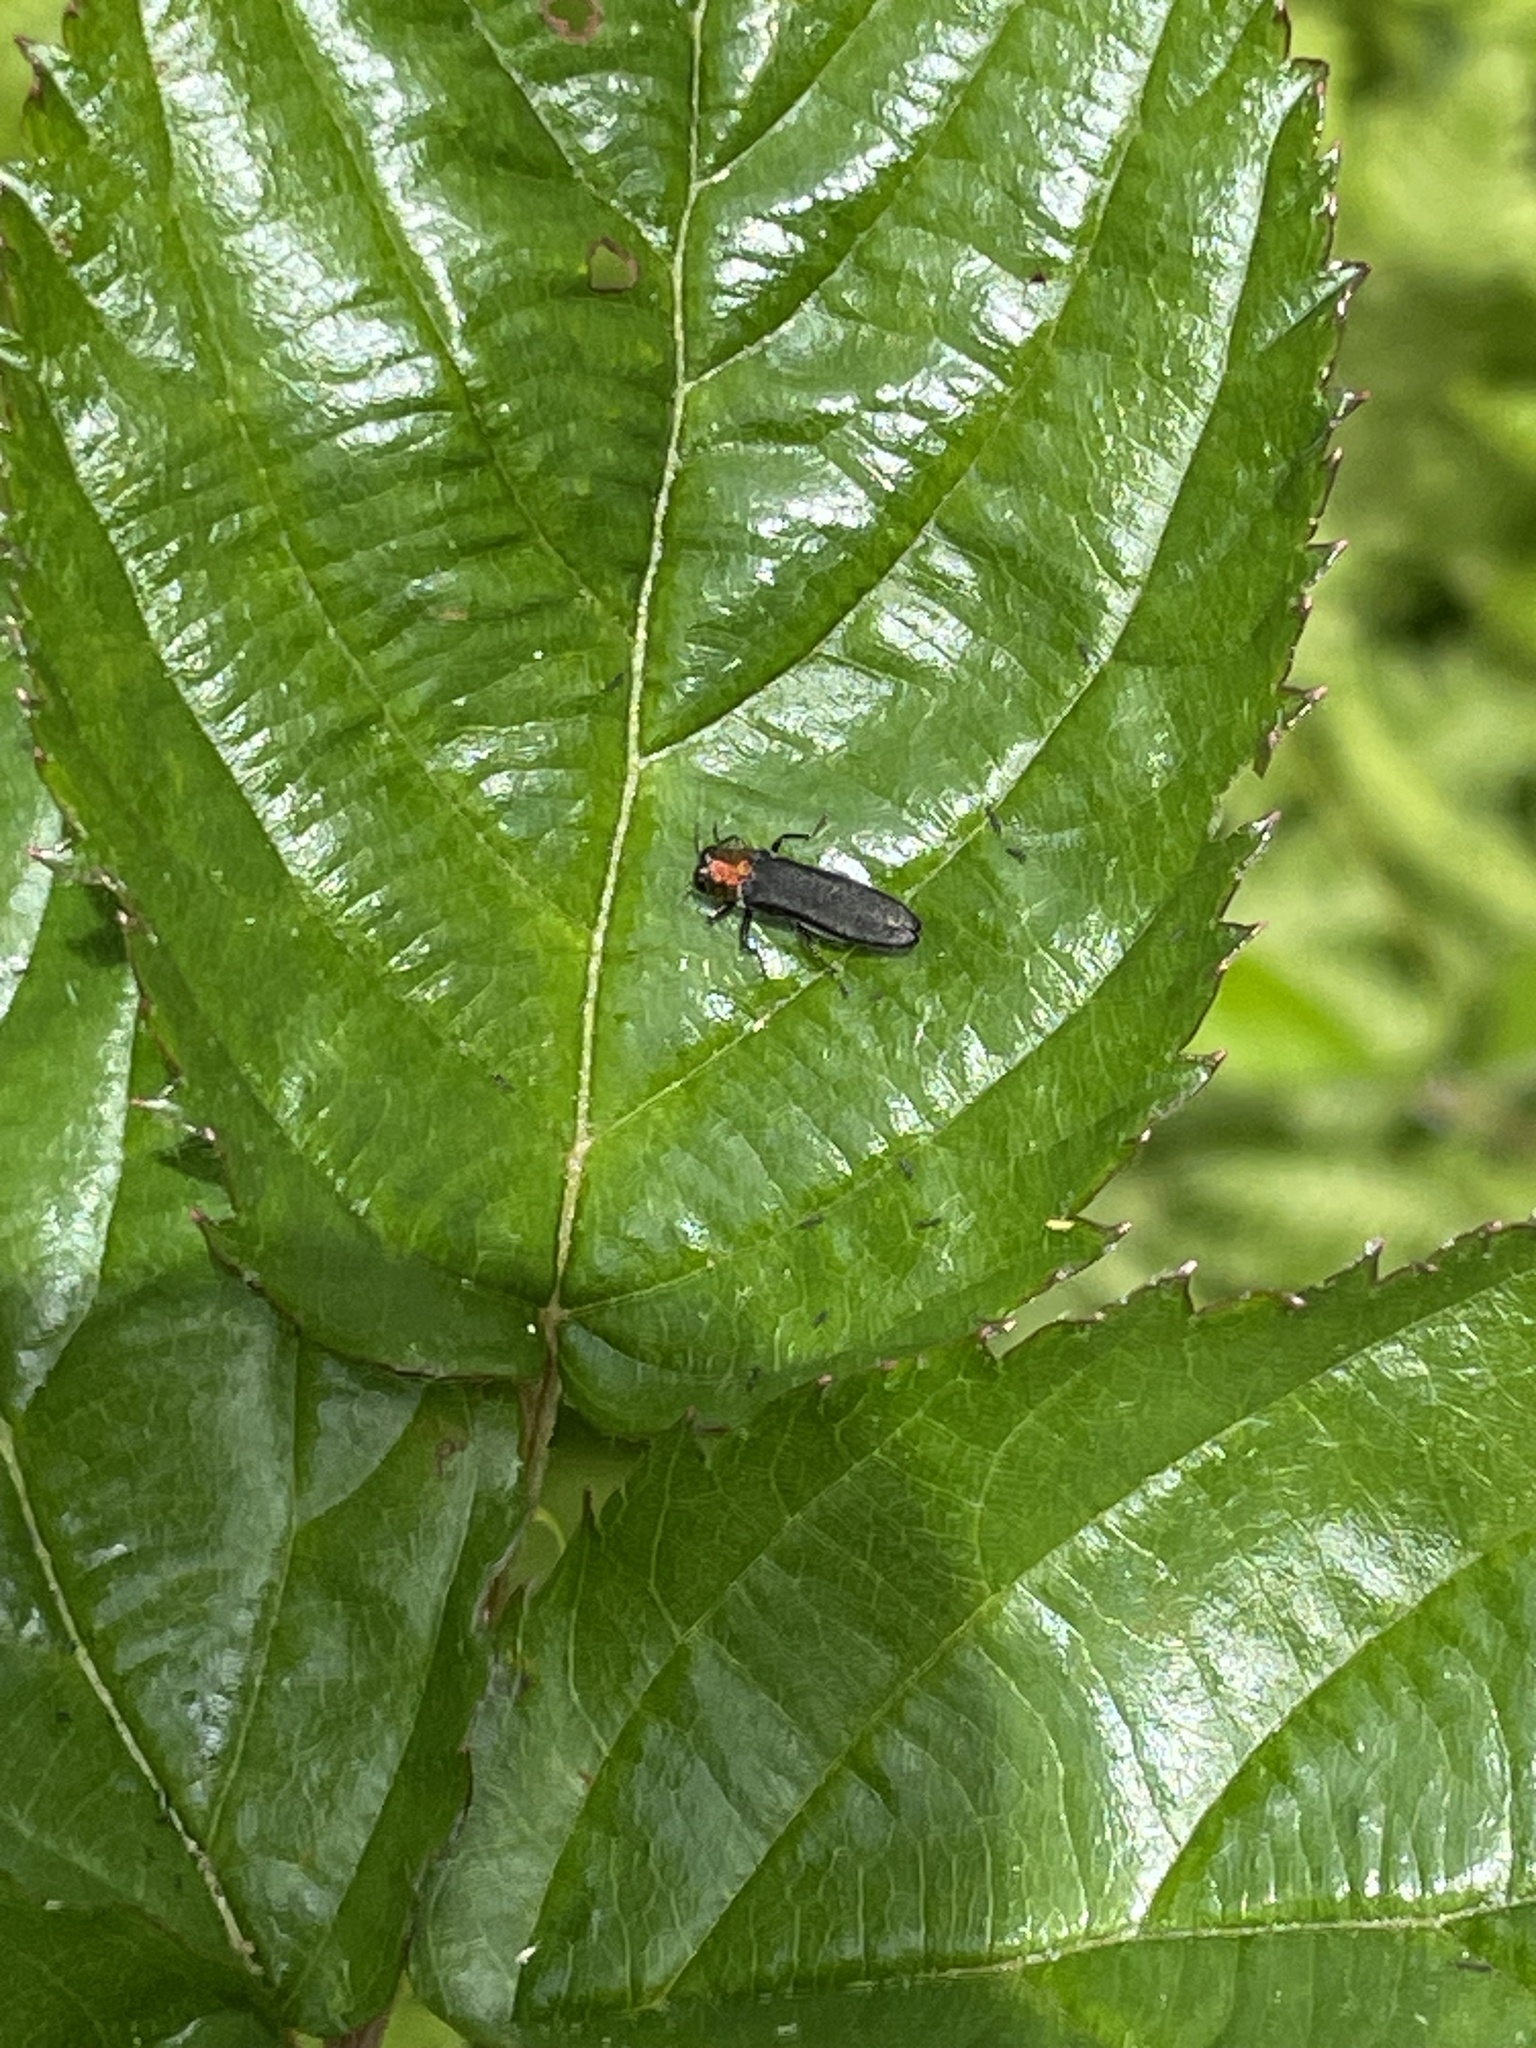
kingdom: Animalia
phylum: Arthropoda
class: Insecta
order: Coleoptera
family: Buprestidae
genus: Agrilus
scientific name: Agrilus ruficollis
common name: Red-necked cane borer beetle
